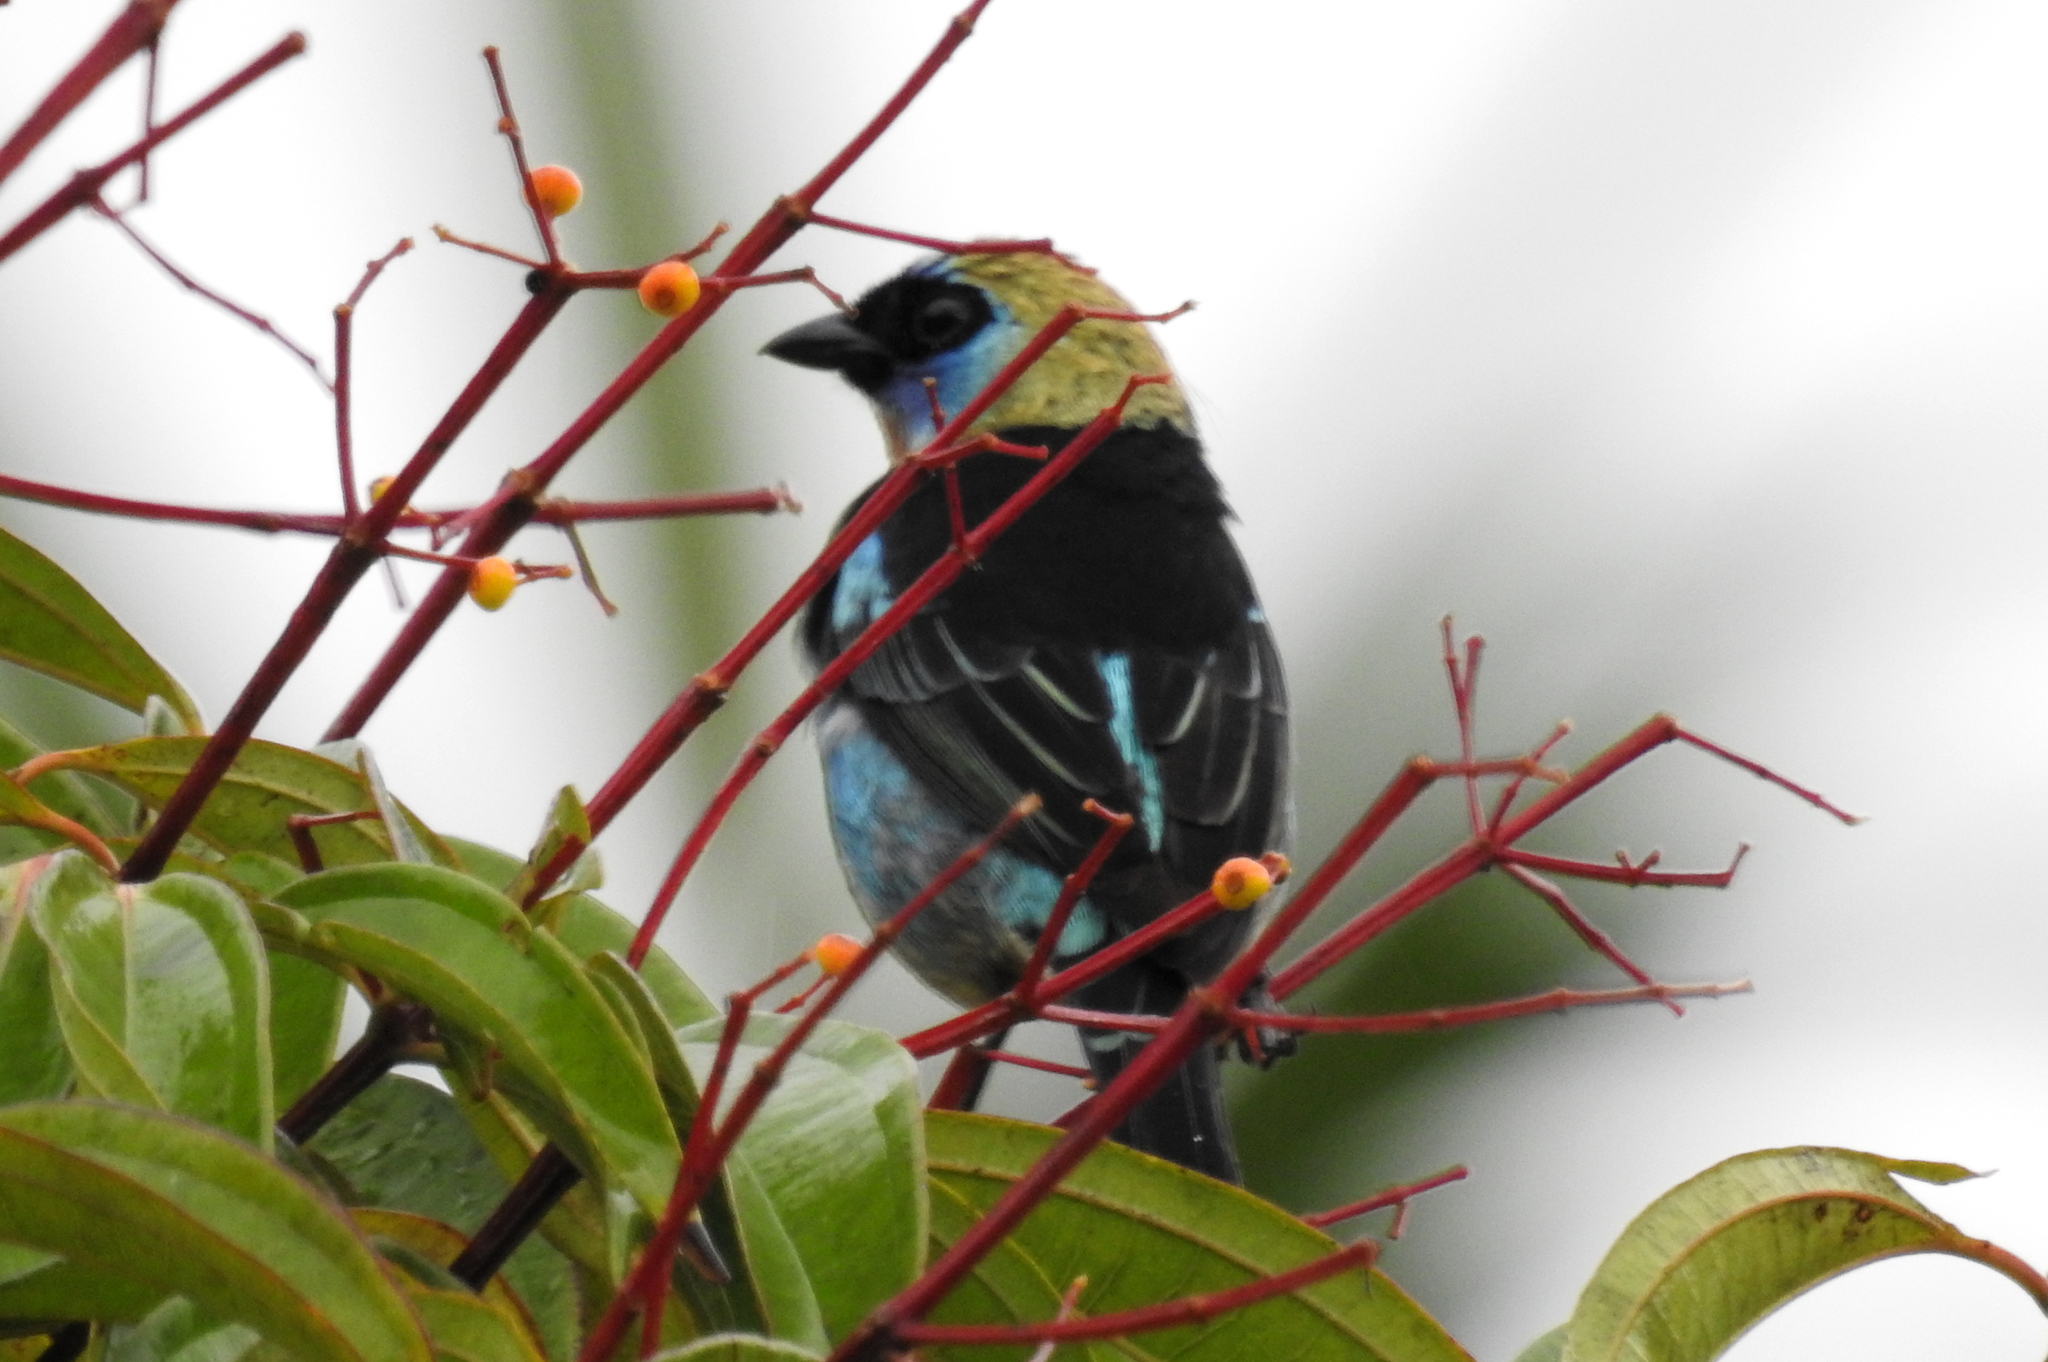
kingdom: Animalia
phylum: Chordata
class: Aves
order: Passeriformes
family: Thraupidae
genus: Stilpnia
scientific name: Stilpnia larvata
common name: Golden-hooded tanager
